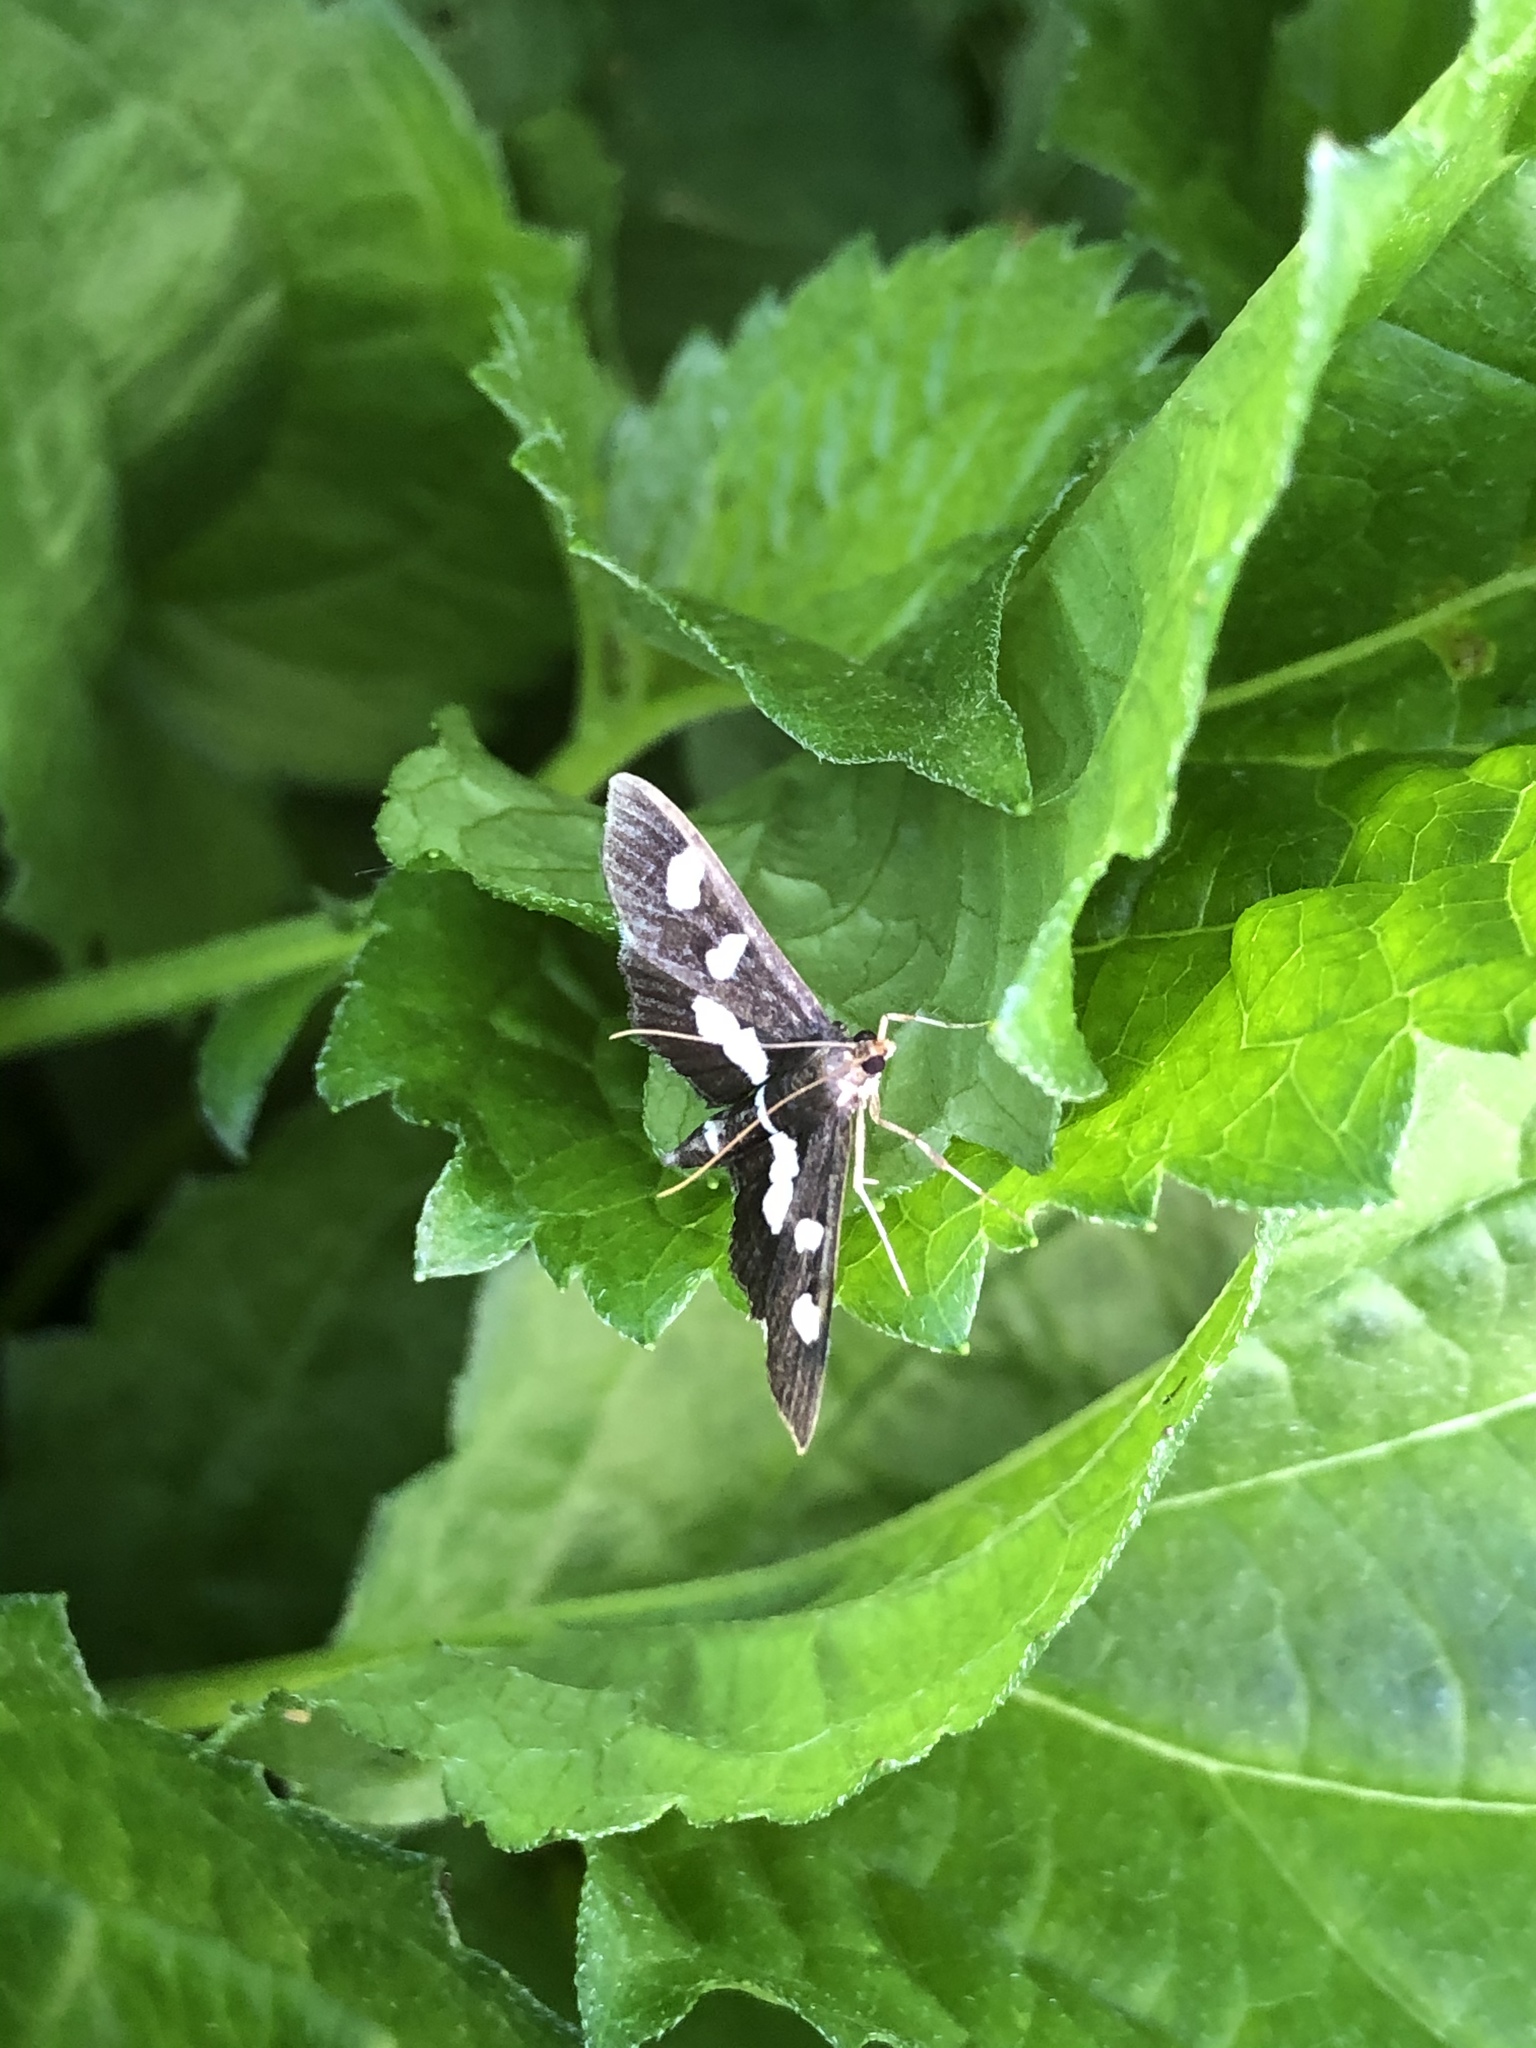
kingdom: Animalia
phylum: Arthropoda
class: Insecta
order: Lepidoptera
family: Crambidae
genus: Desmia
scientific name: Desmia
